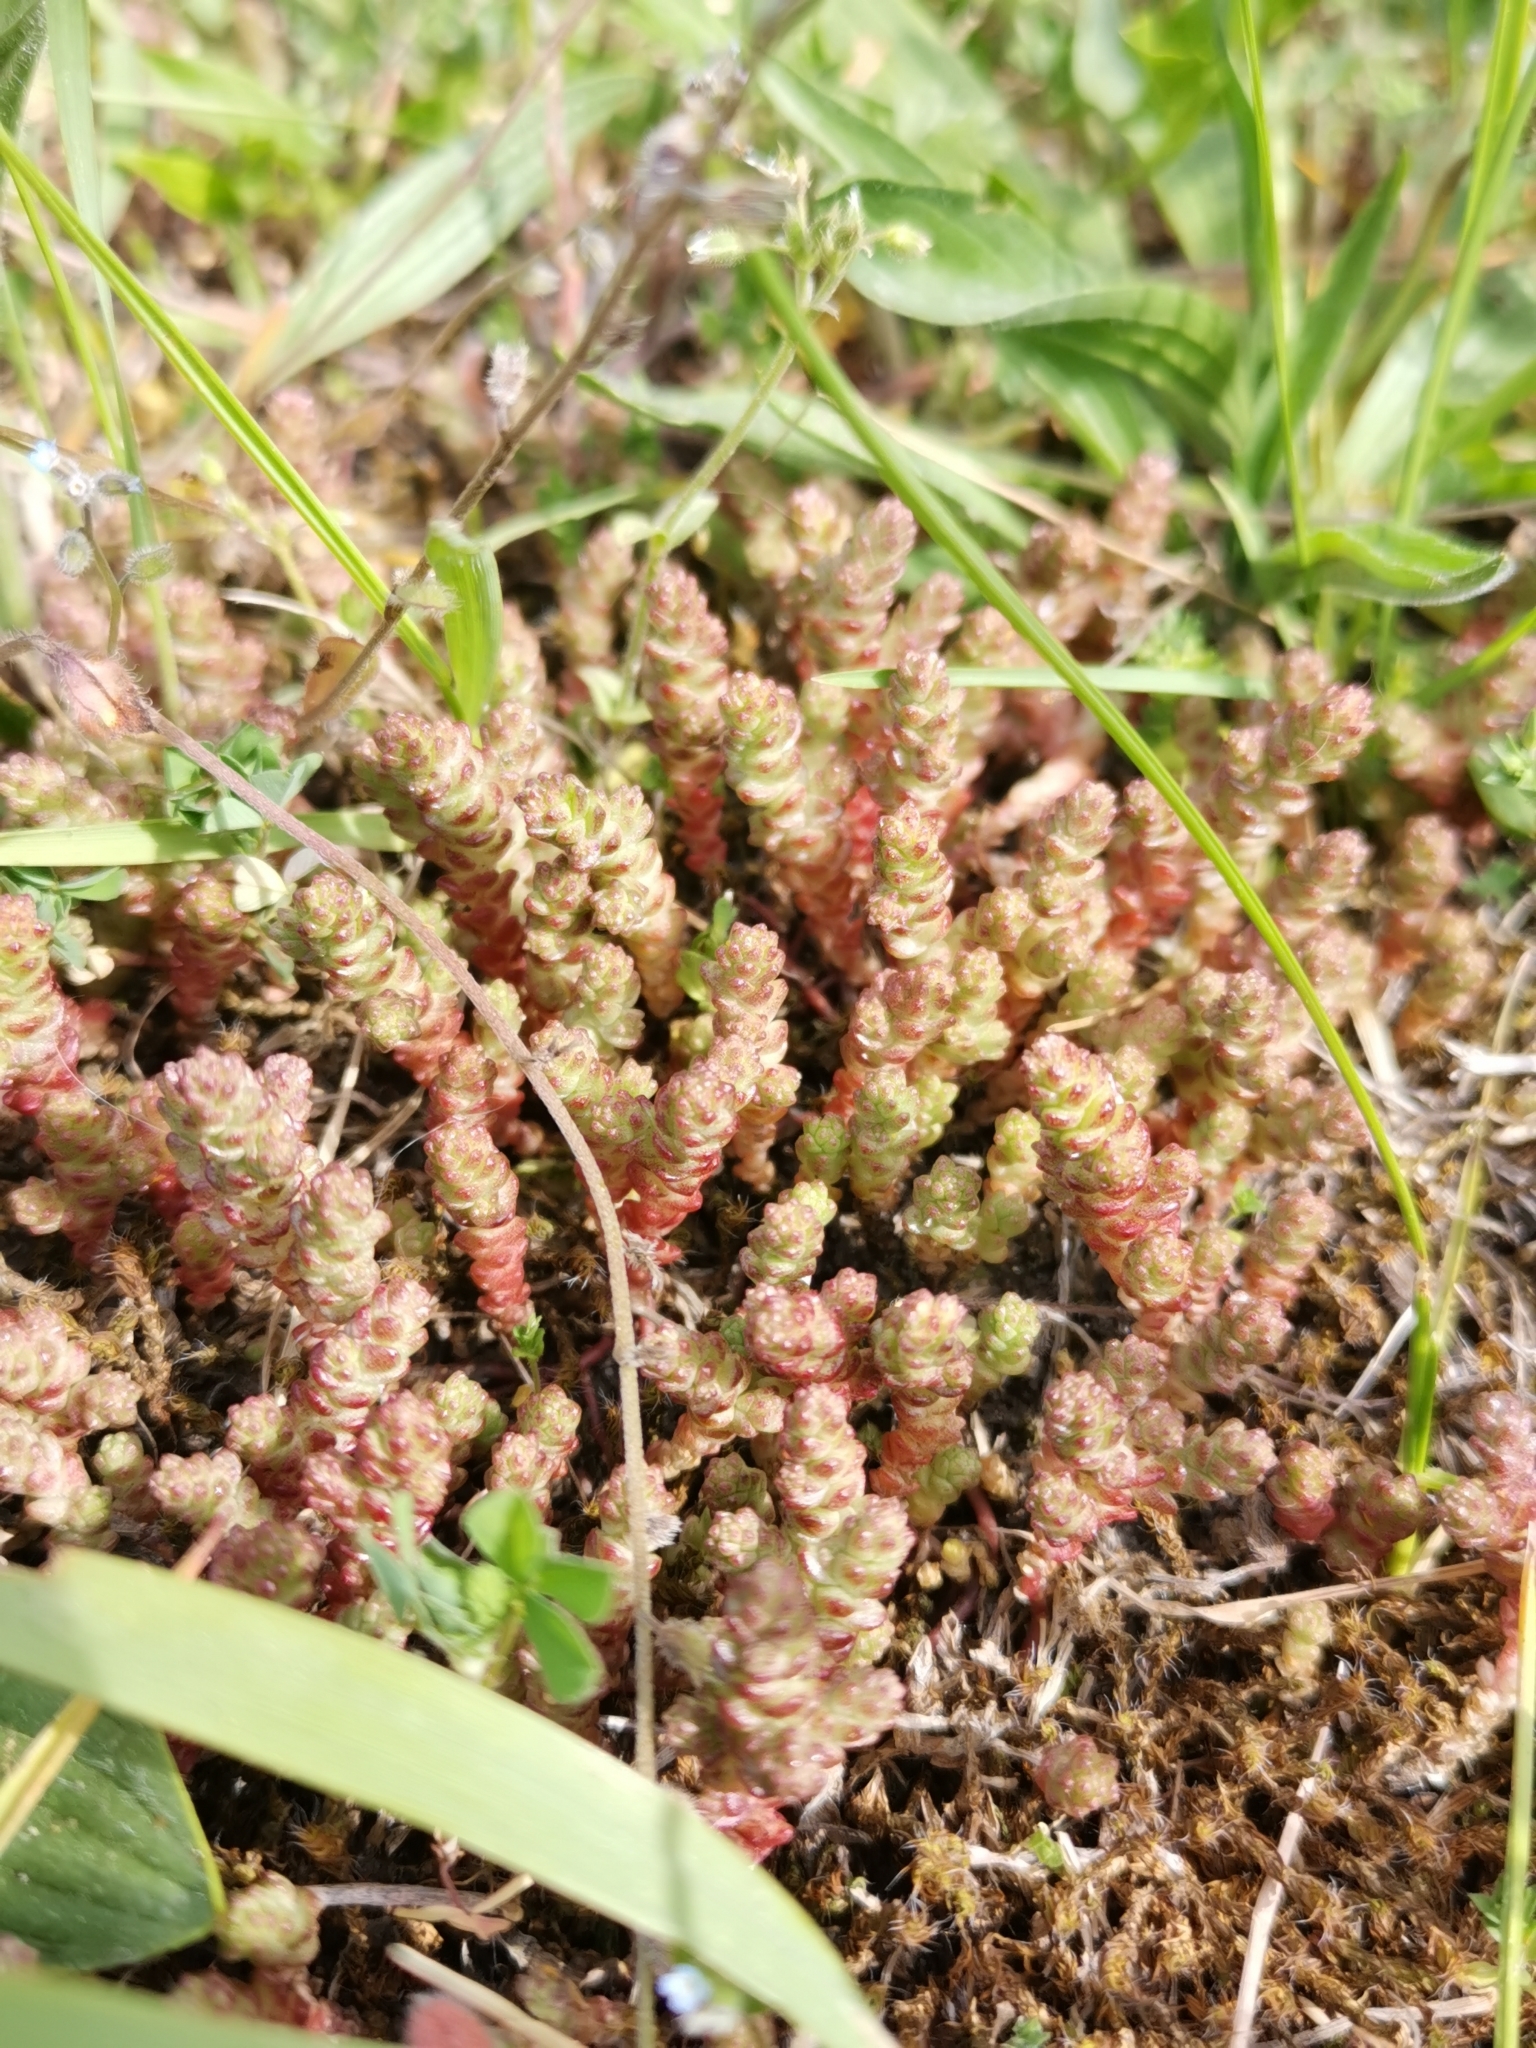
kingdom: Plantae
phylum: Tracheophyta
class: Magnoliopsida
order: Saxifragales
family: Crassulaceae
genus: Sedum
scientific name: Sedum acre
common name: Biting stonecrop
